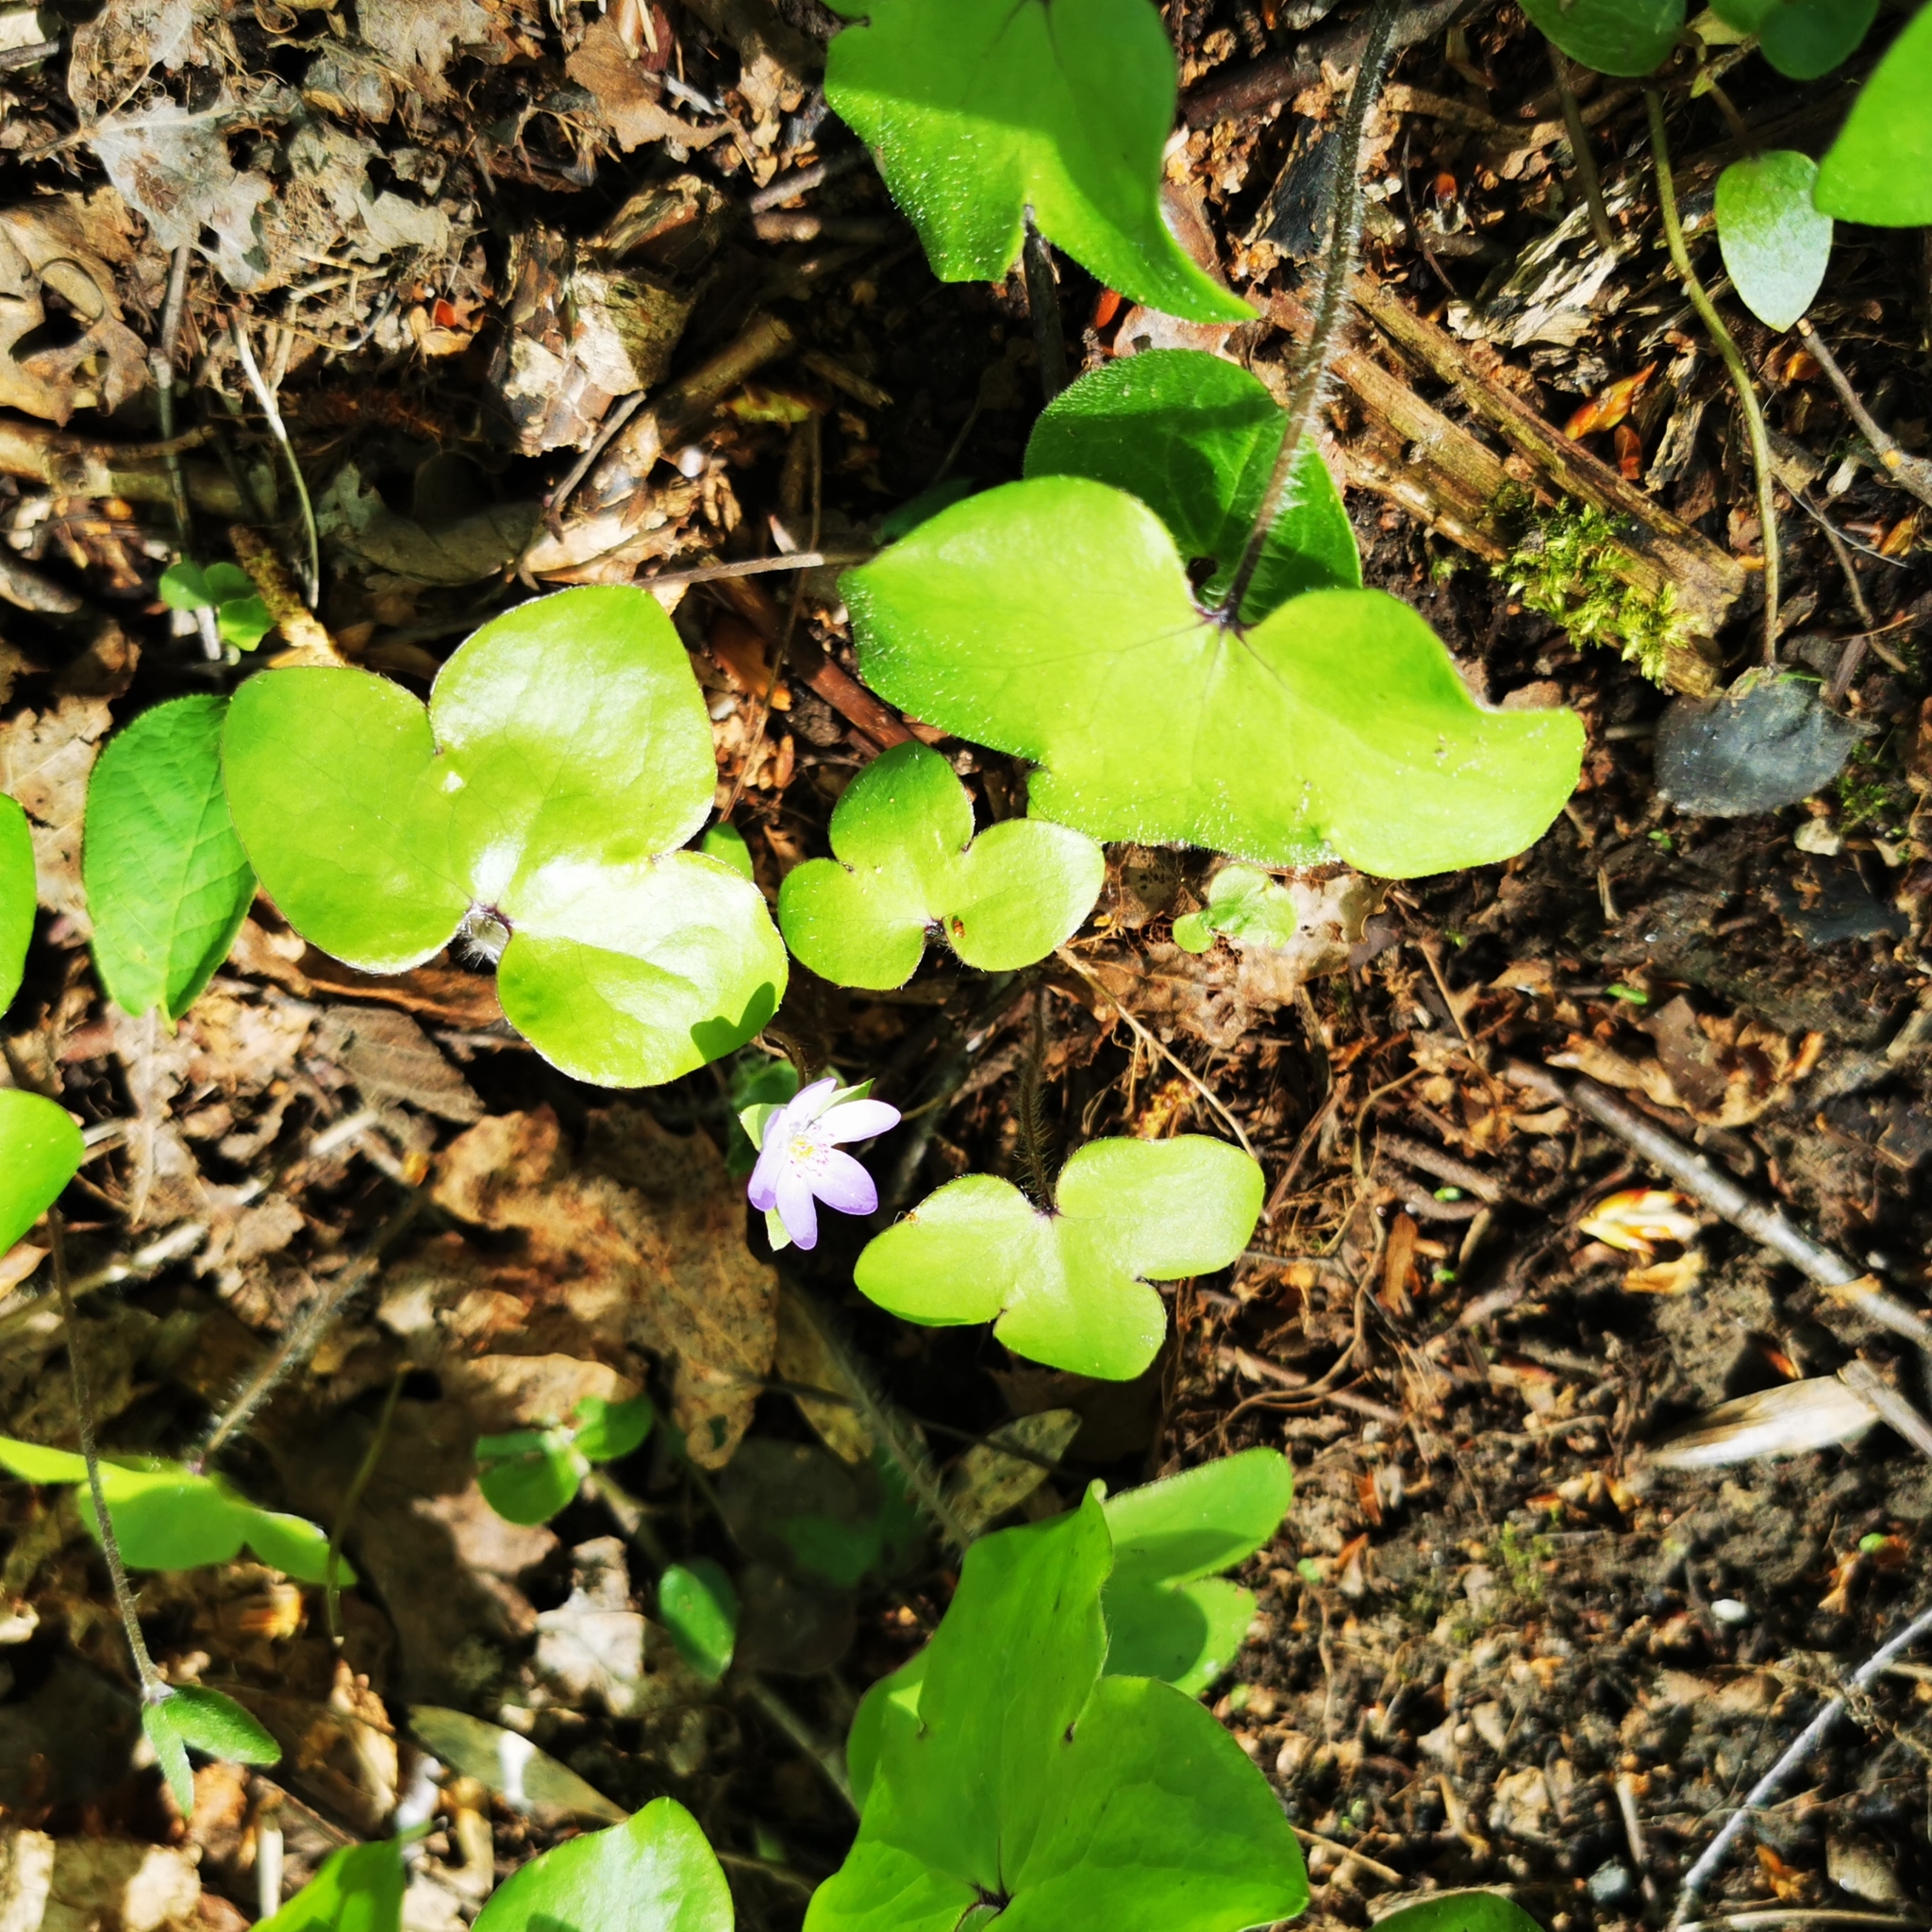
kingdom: Plantae
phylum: Tracheophyta
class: Magnoliopsida
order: Ranunculales
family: Ranunculaceae
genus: Hepatica
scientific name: Hepatica nobilis
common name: Liverleaf
